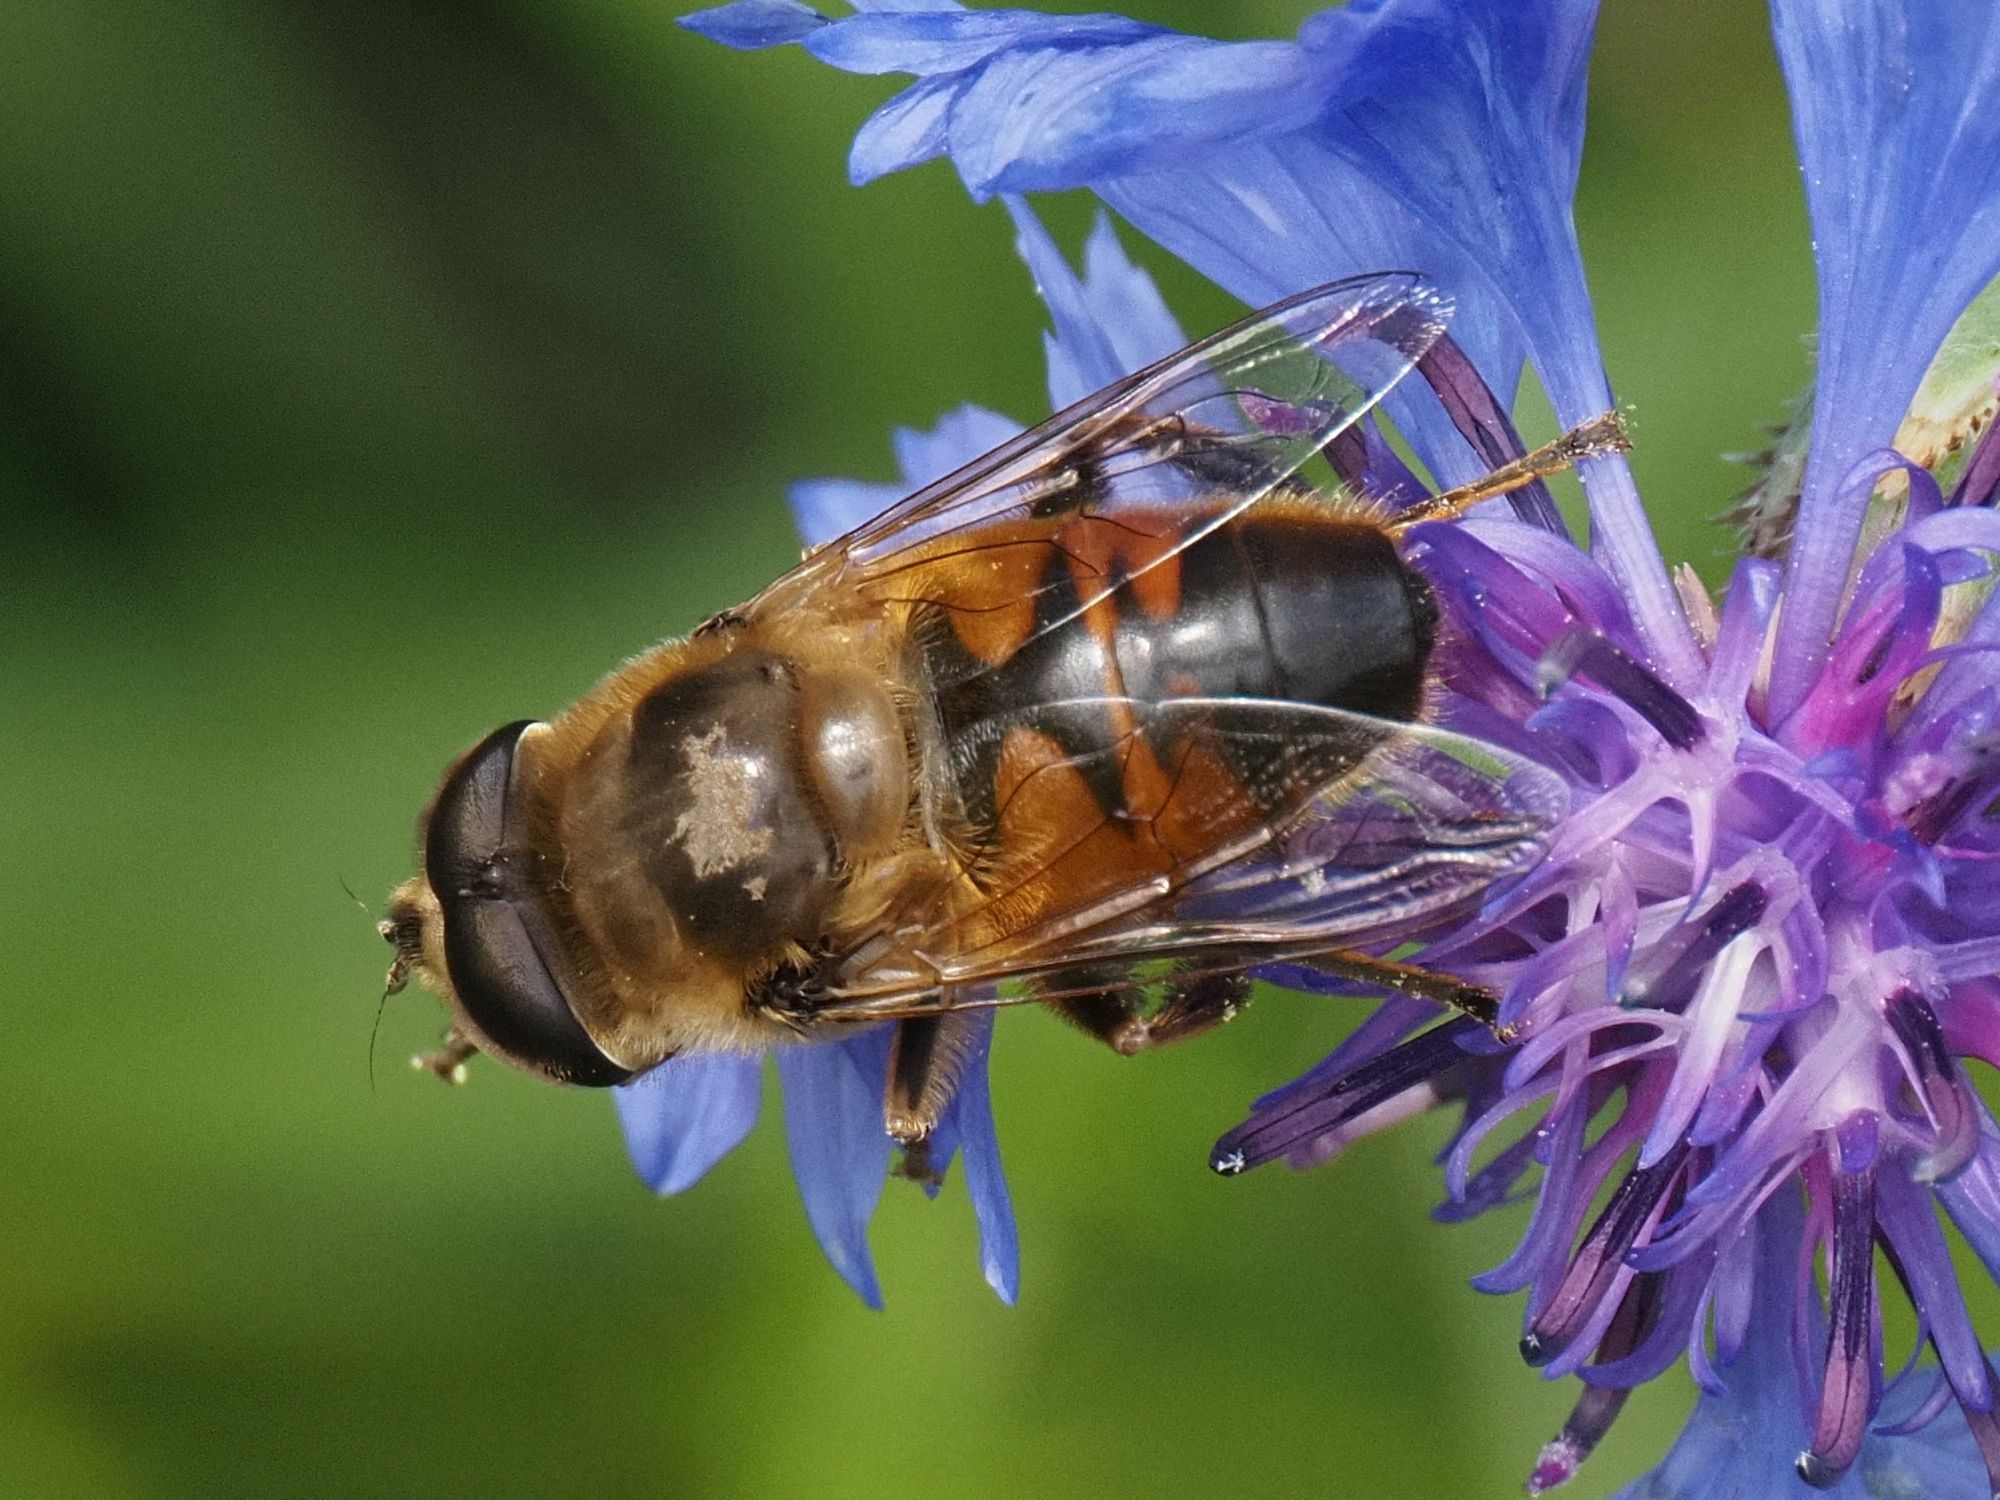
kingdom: Animalia
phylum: Arthropoda
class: Insecta
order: Diptera
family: Syrphidae
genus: Eristalis
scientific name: Eristalis tenax
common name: Drone fly
